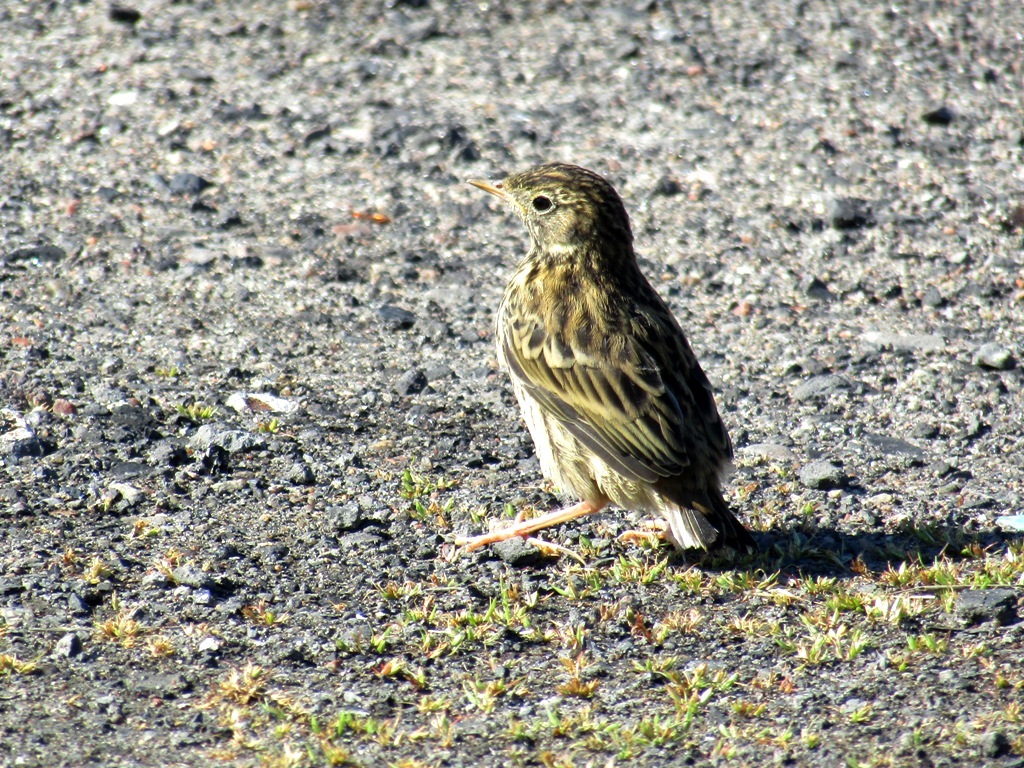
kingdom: Animalia
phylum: Chordata
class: Aves
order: Passeriformes
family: Motacillidae
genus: Anthus
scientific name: Anthus pratensis
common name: Meadow pipit
